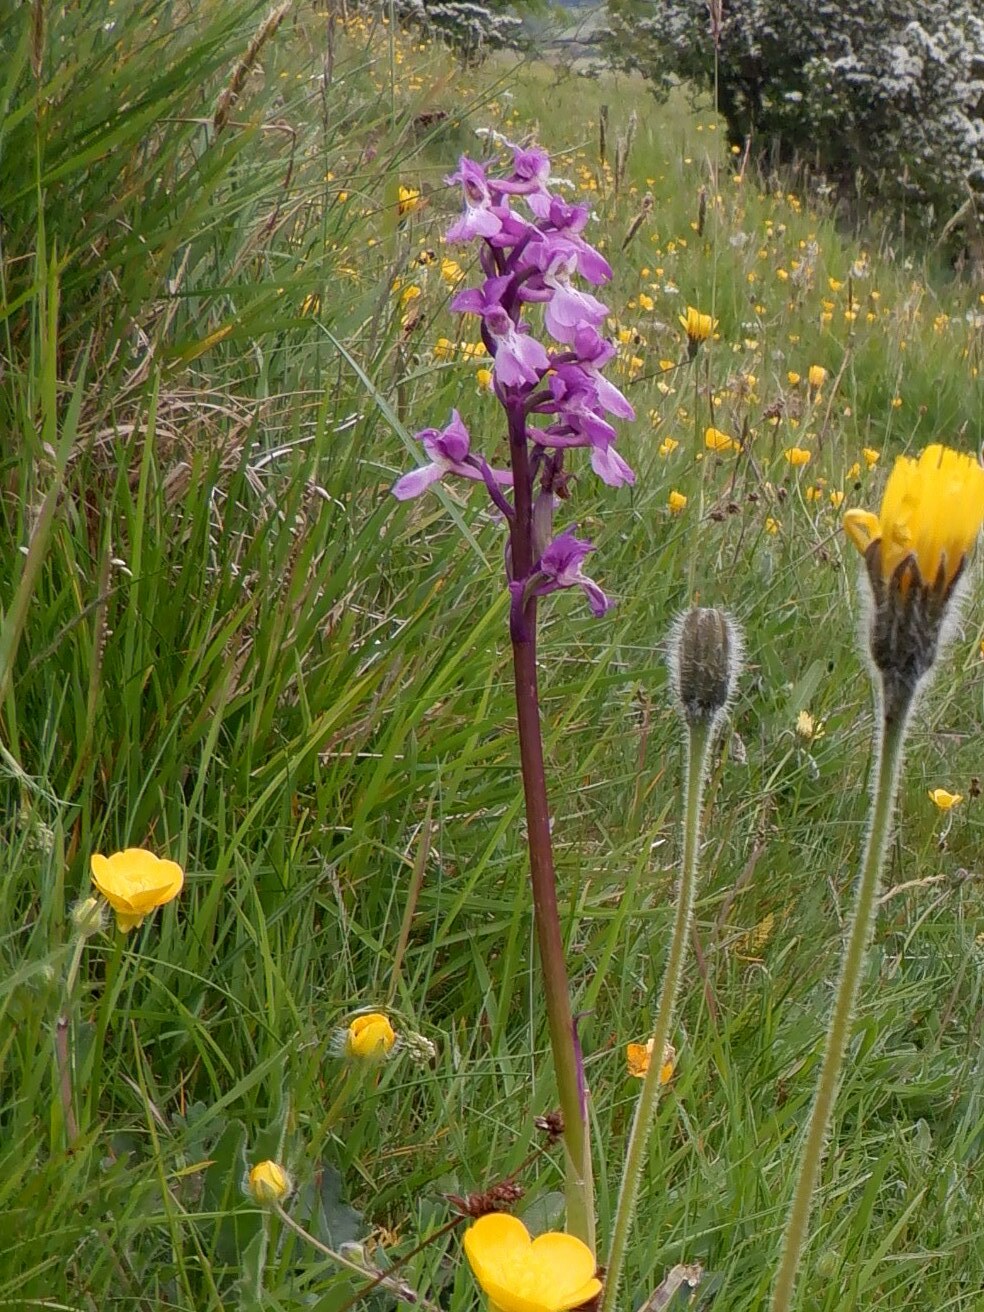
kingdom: Plantae
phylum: Tracheophyta
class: Liliopsida
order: Asparagales
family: Orchidaceae
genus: Orchis
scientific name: Orchis mascula
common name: Early-purple orchid
